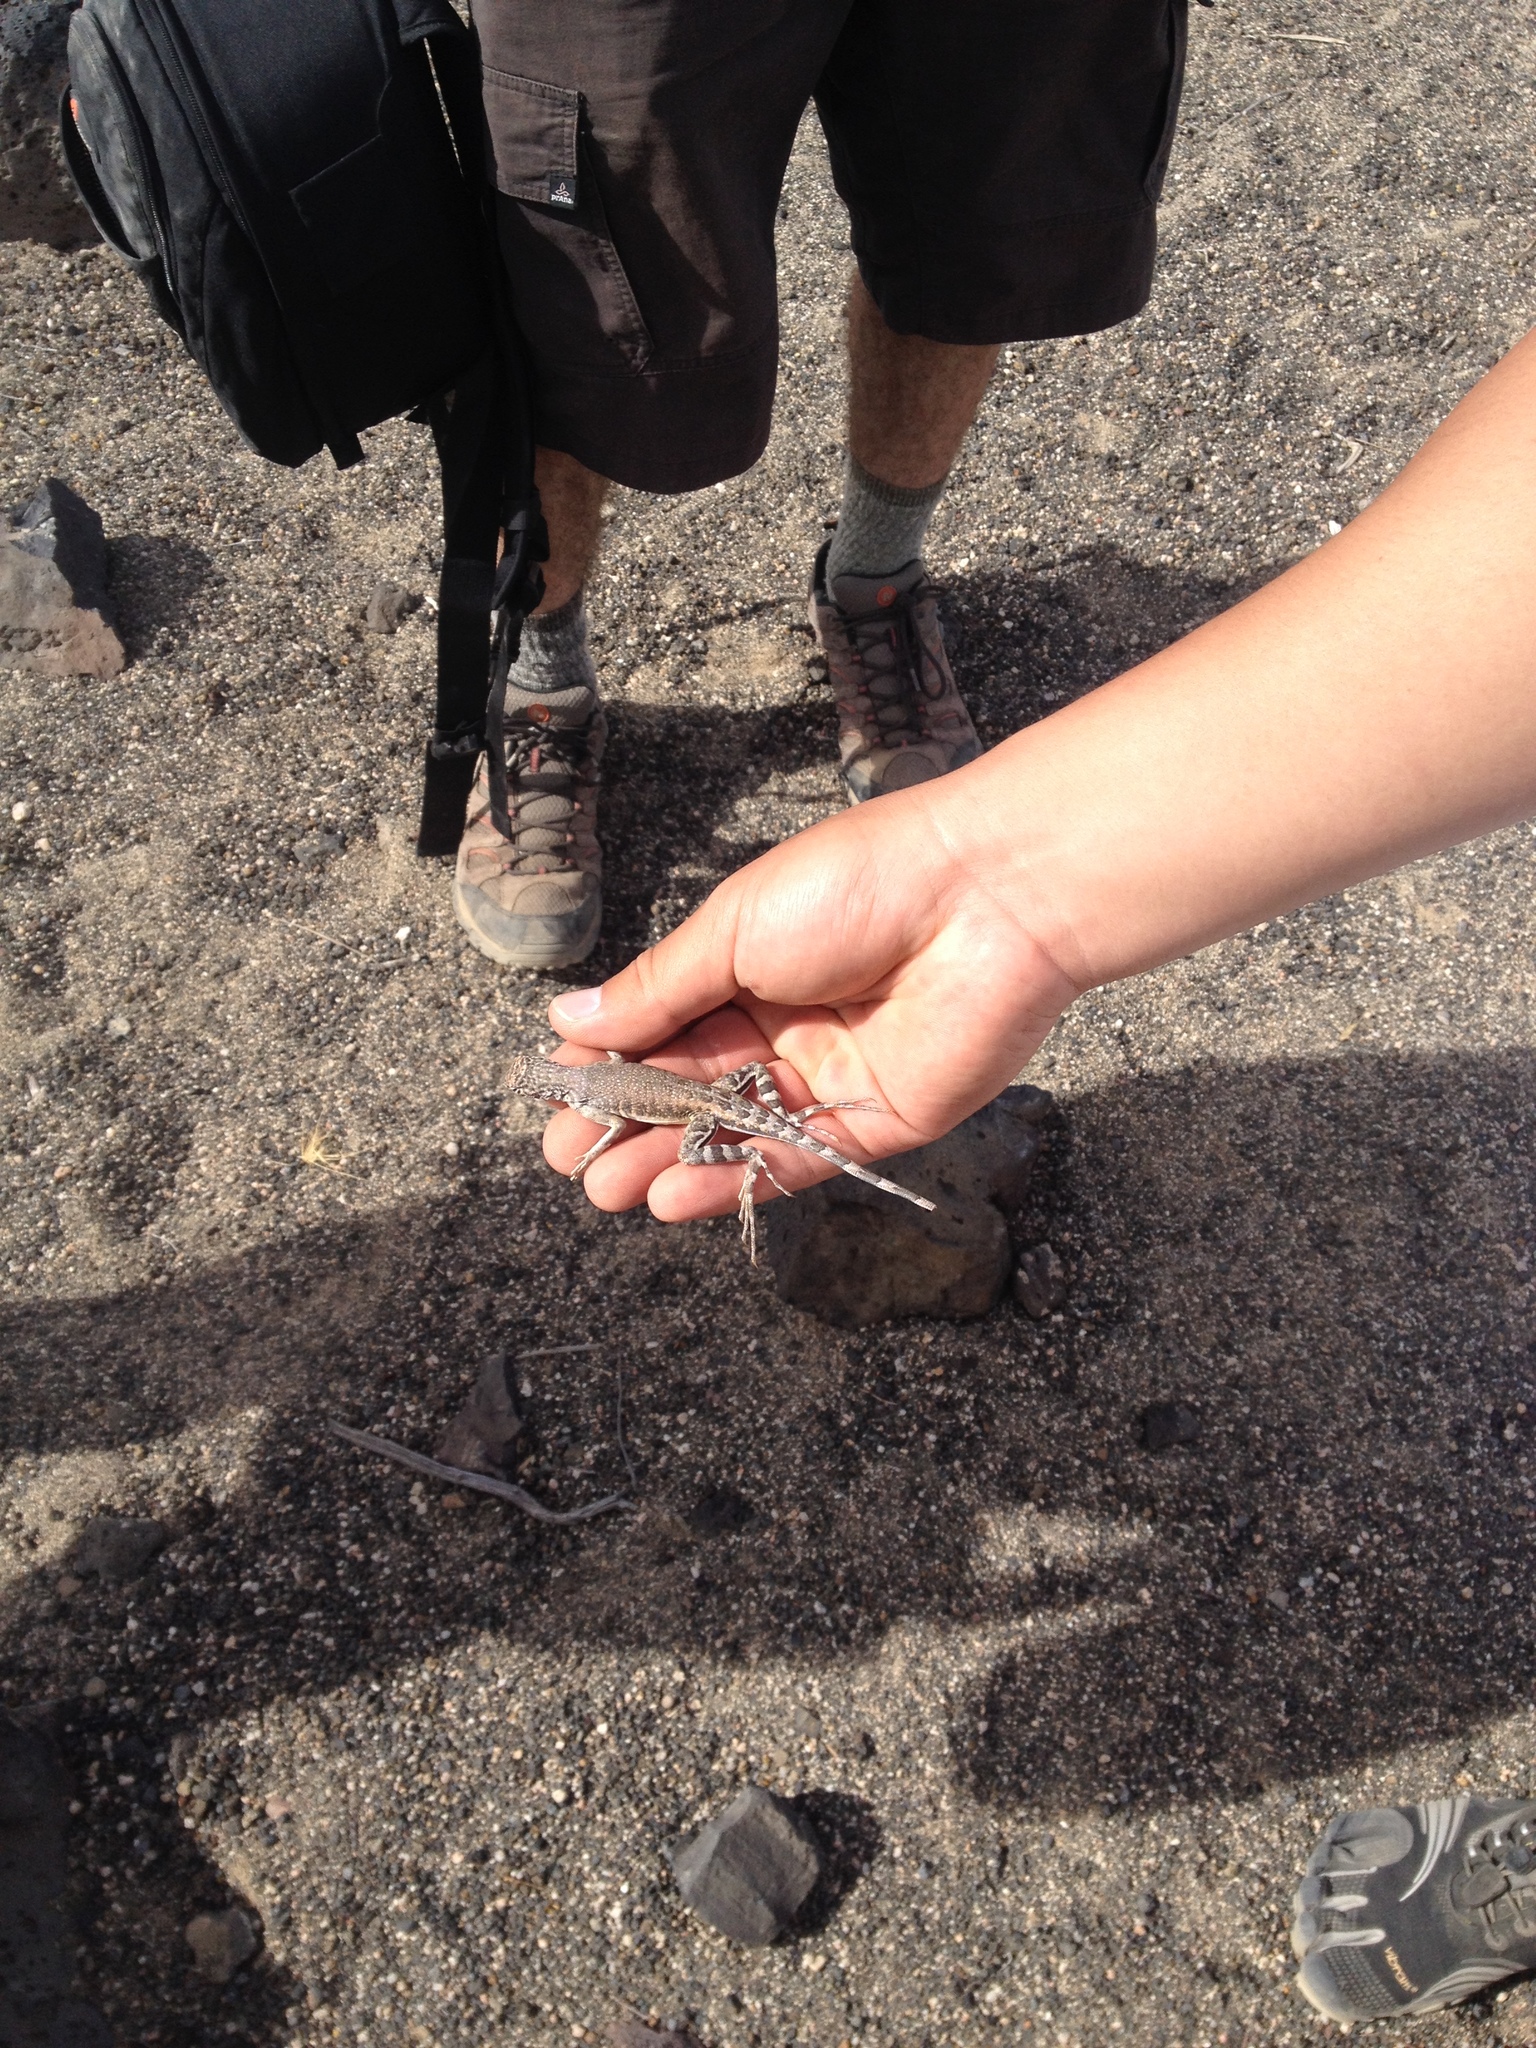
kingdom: Animalia
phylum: Chordata
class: Squamata
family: Phrynosomatidae
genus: Callisaurus
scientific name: Callisaurus draconoides
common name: Zebra-tailed lizard
